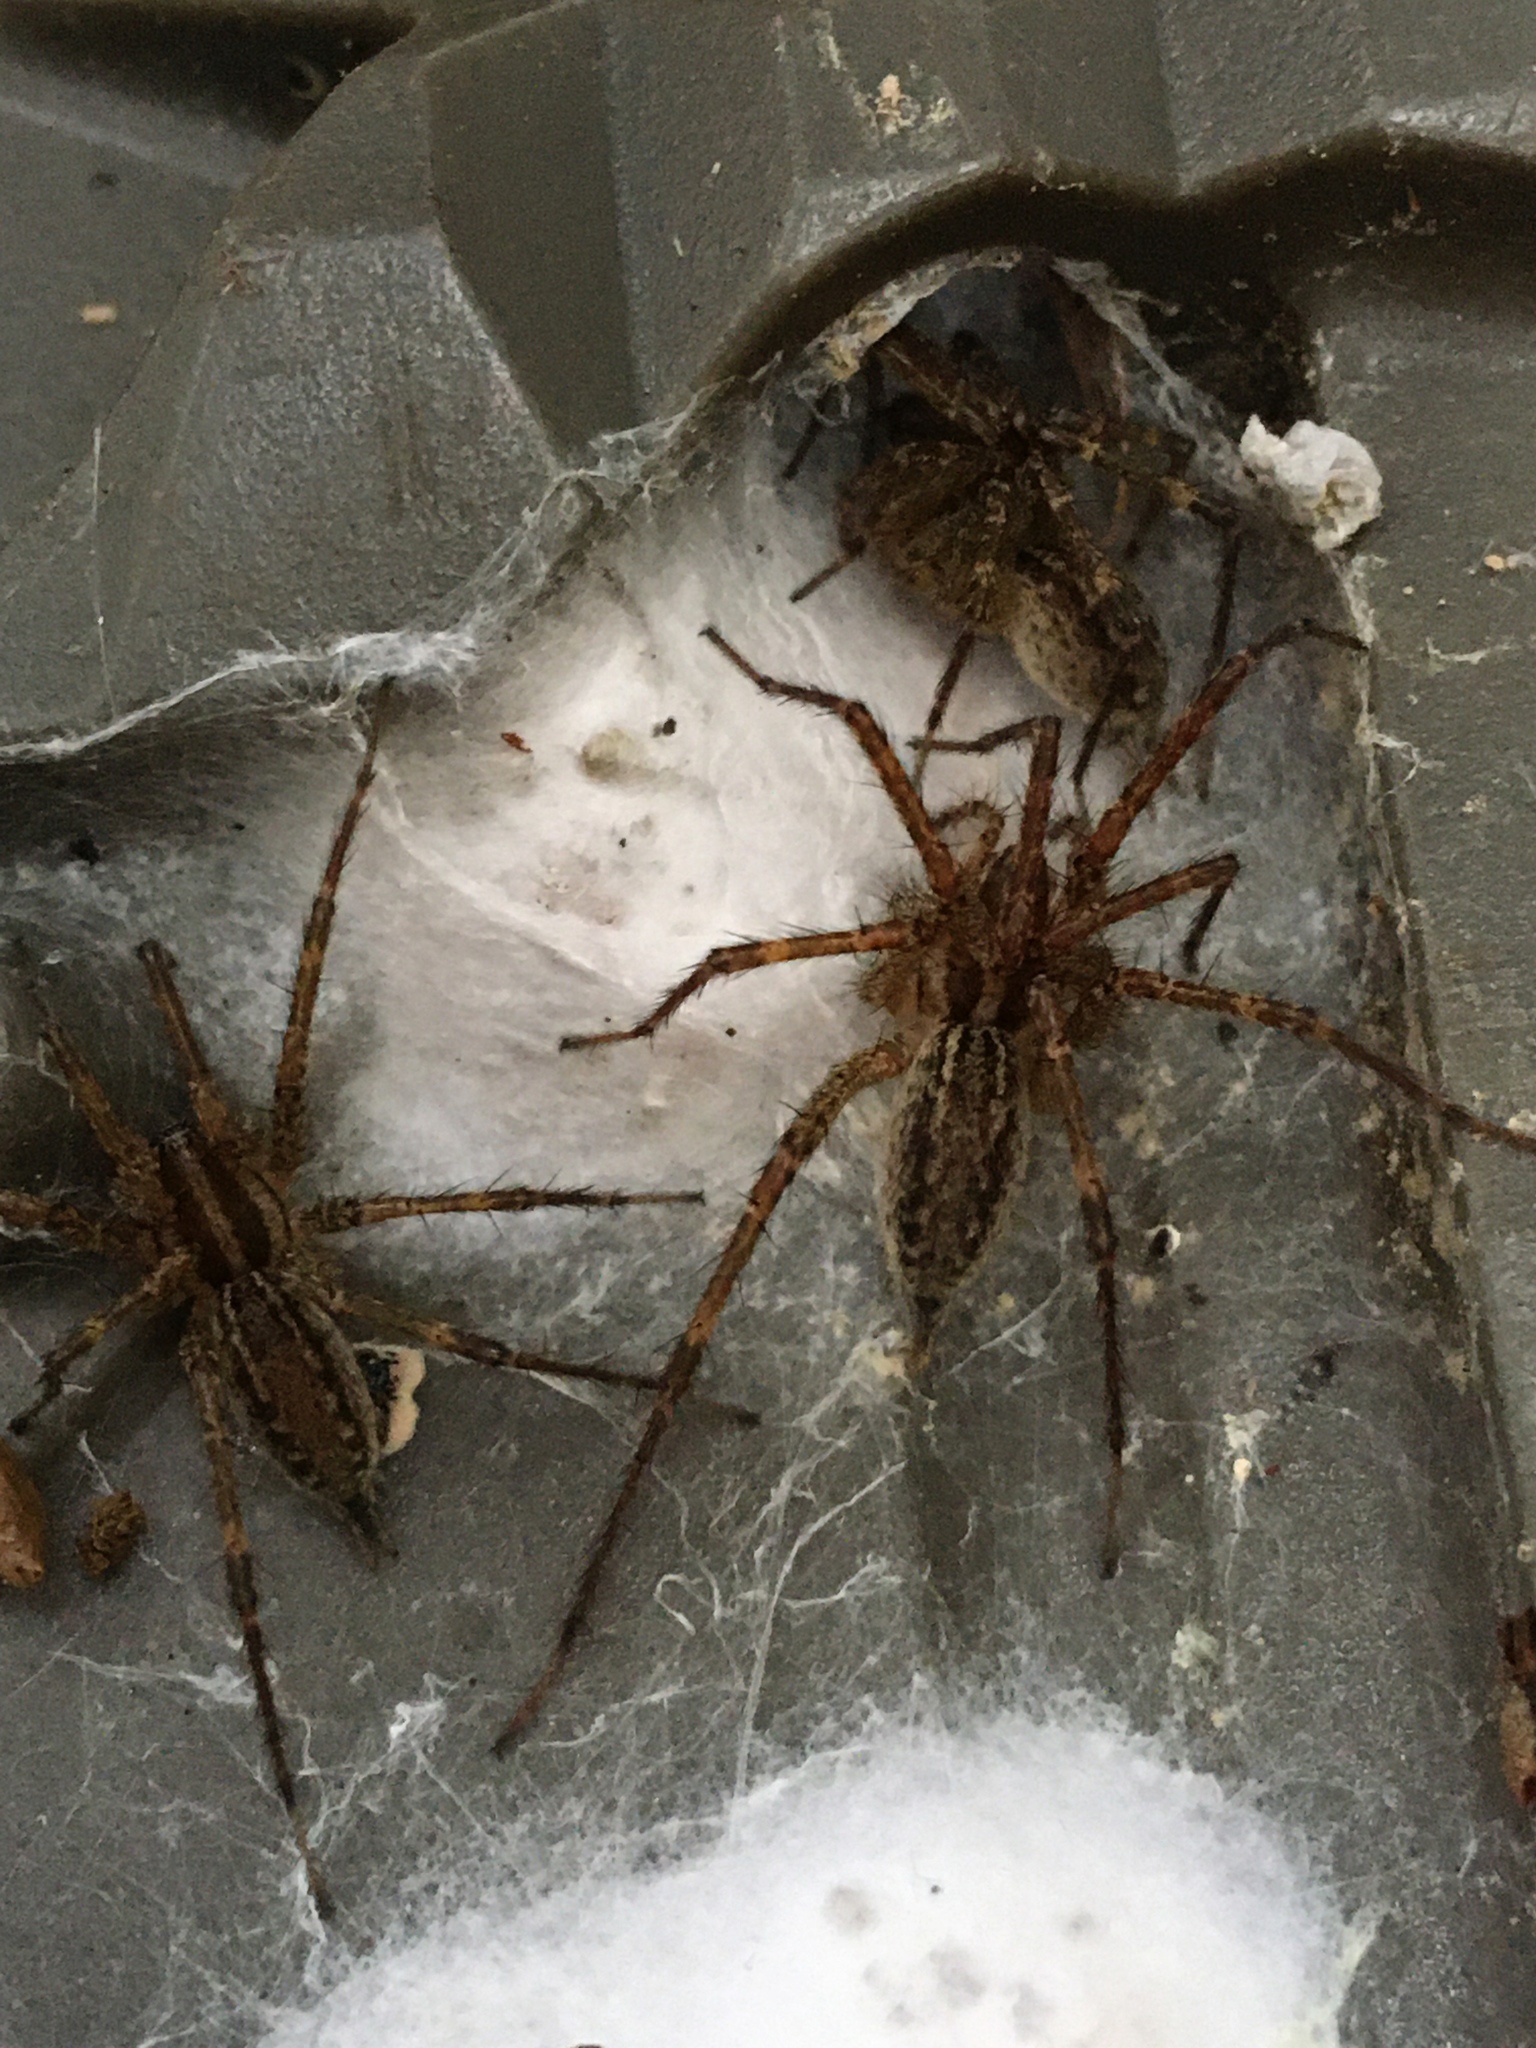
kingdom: Animalia
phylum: Arthropoda
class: Arachnida
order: Araneae
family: Agelenidae
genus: Agelenopsis
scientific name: Agelenopsis
